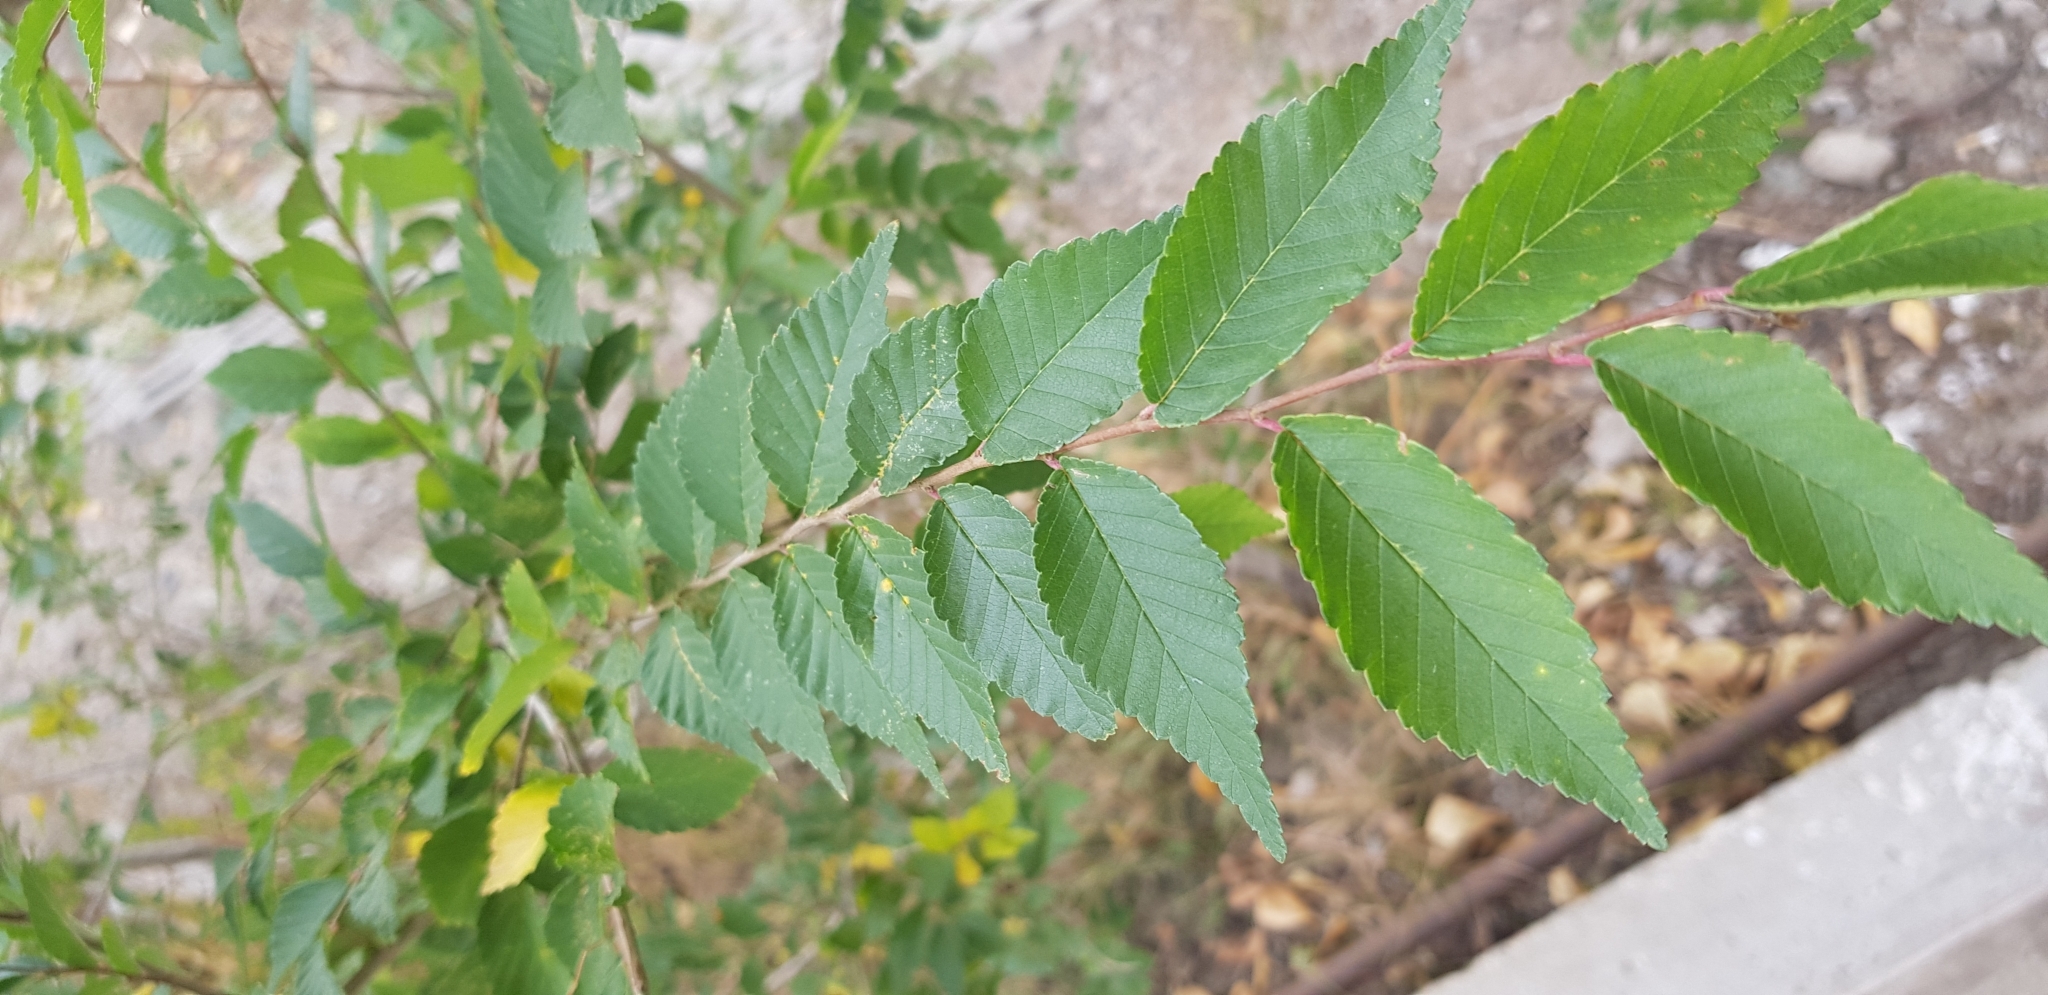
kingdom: Plantae
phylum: Tracheophyta
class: Magnoliopsida
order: Rosales
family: Ulmaceae
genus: Ulmus
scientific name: Ulmus pumila
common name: Siberian elm
